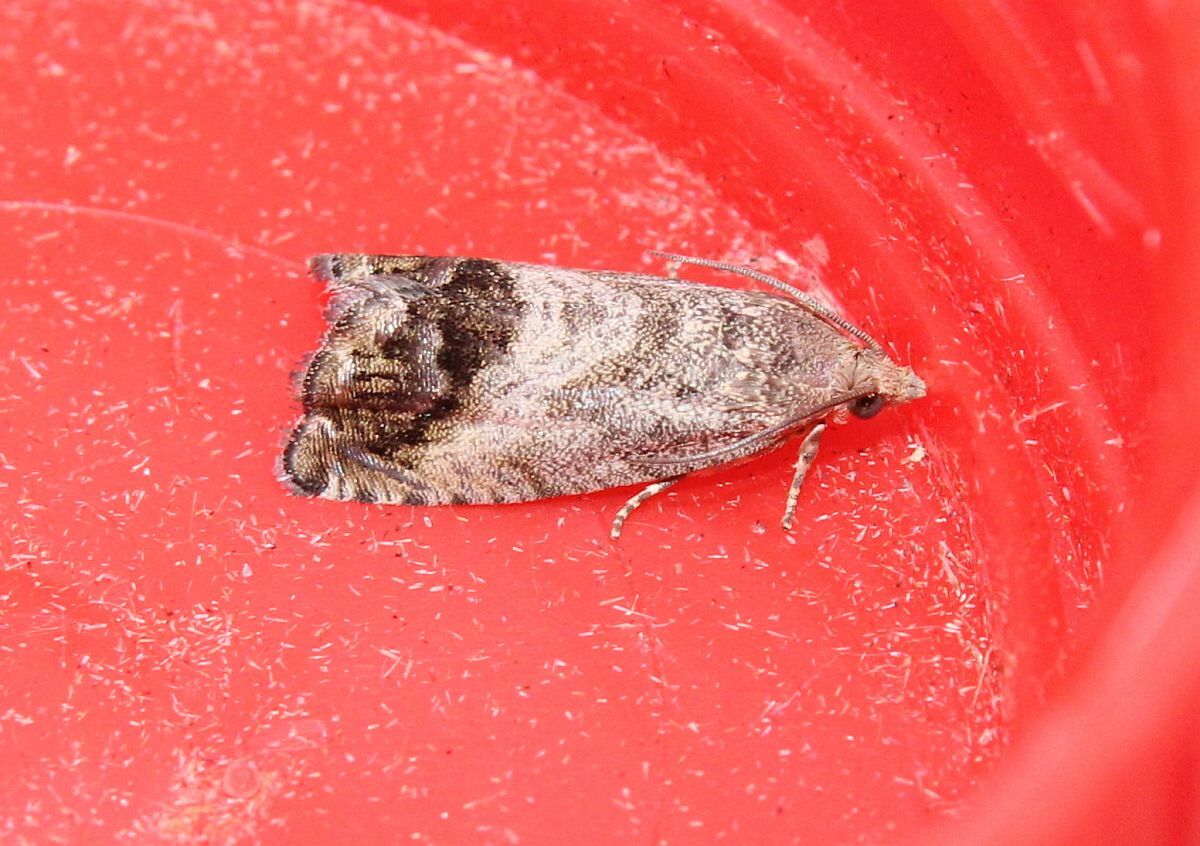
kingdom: Animalia
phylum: Arthropoda
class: Insecta
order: Lepidoptera
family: Tortricidae
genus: Cydia
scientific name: Cydia splendana
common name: De: kastanienwickler, eichenwickler es: oruga de la castaña fr: carpocapse des châtaignes it: cidia o tortrice tardiva delle castagne pt: bichado das castanhas gb: acorn moth, chestnut fruit tortrix
